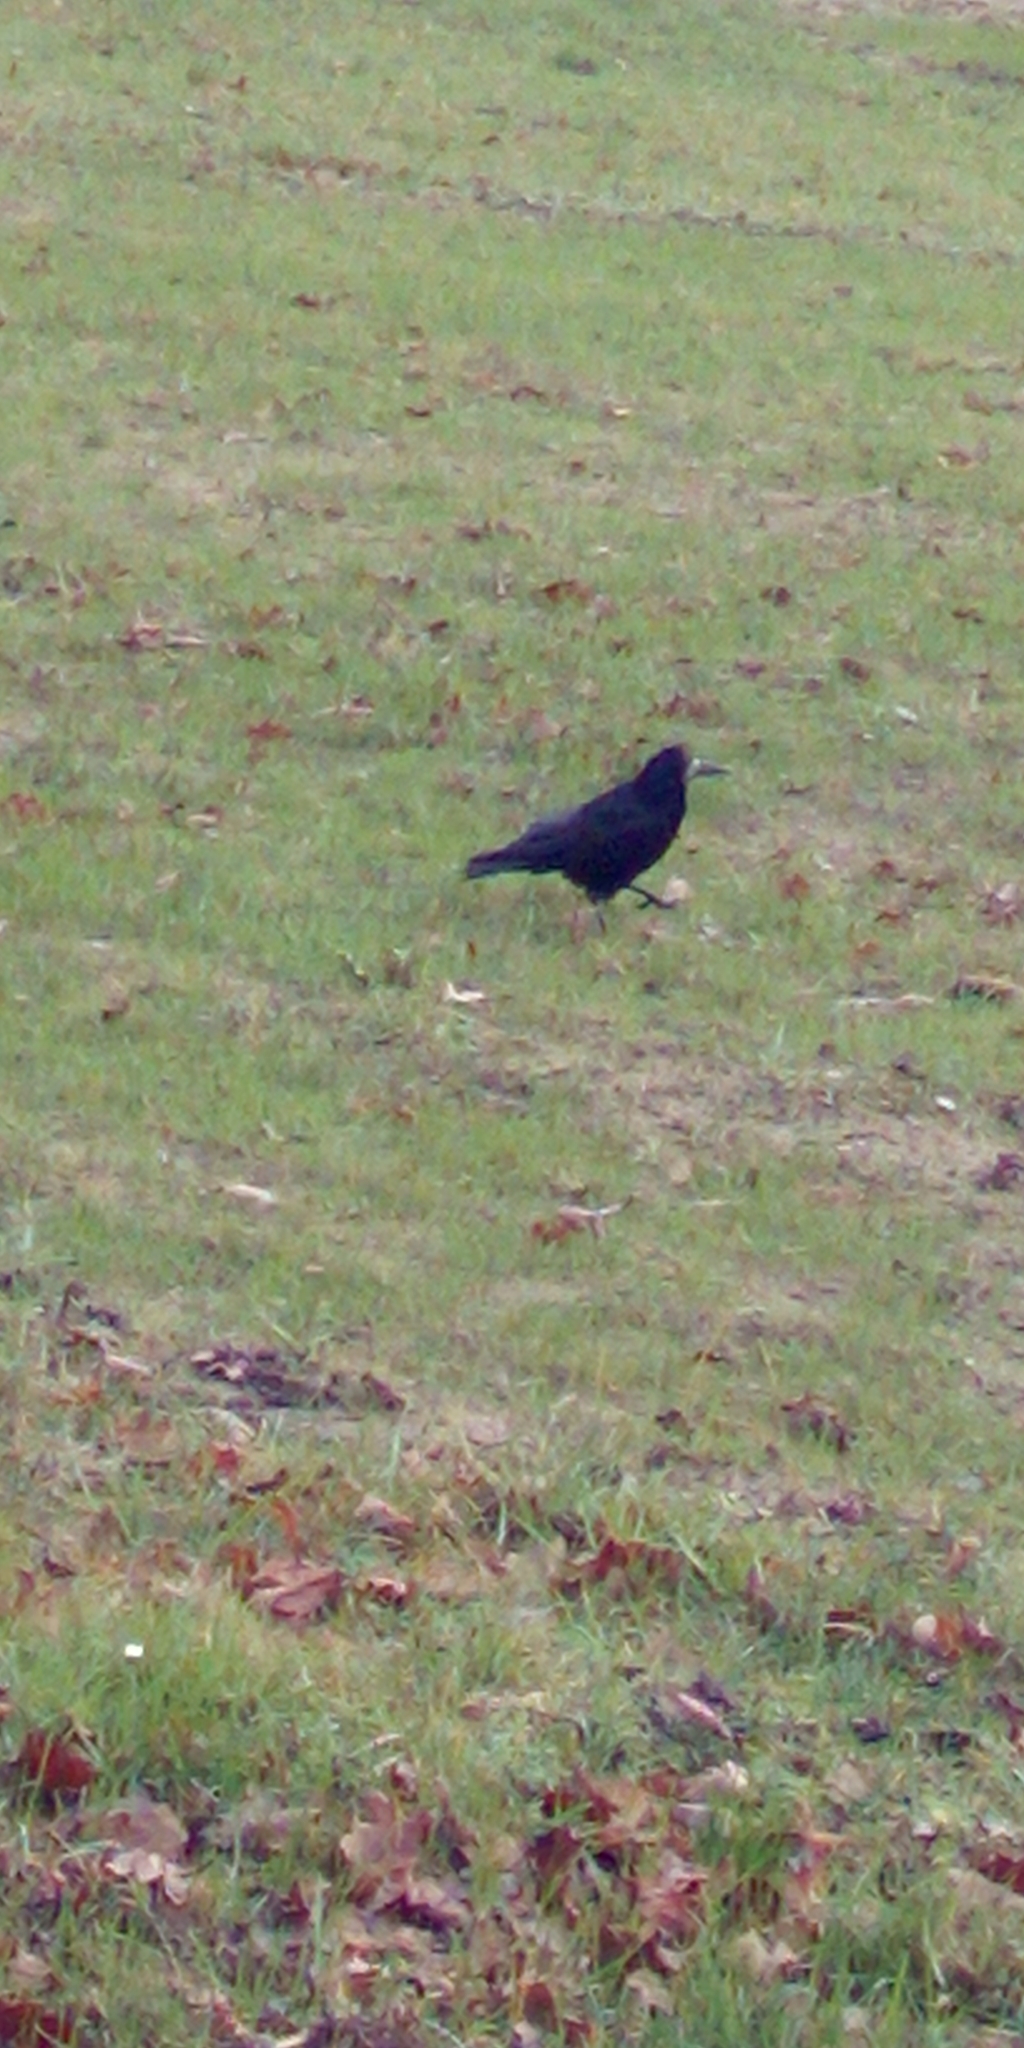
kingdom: Animalia
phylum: Chordata
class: Aves
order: Passeriformes
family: Corvidae
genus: Corvus
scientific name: Corvus frugilegus
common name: Rook
